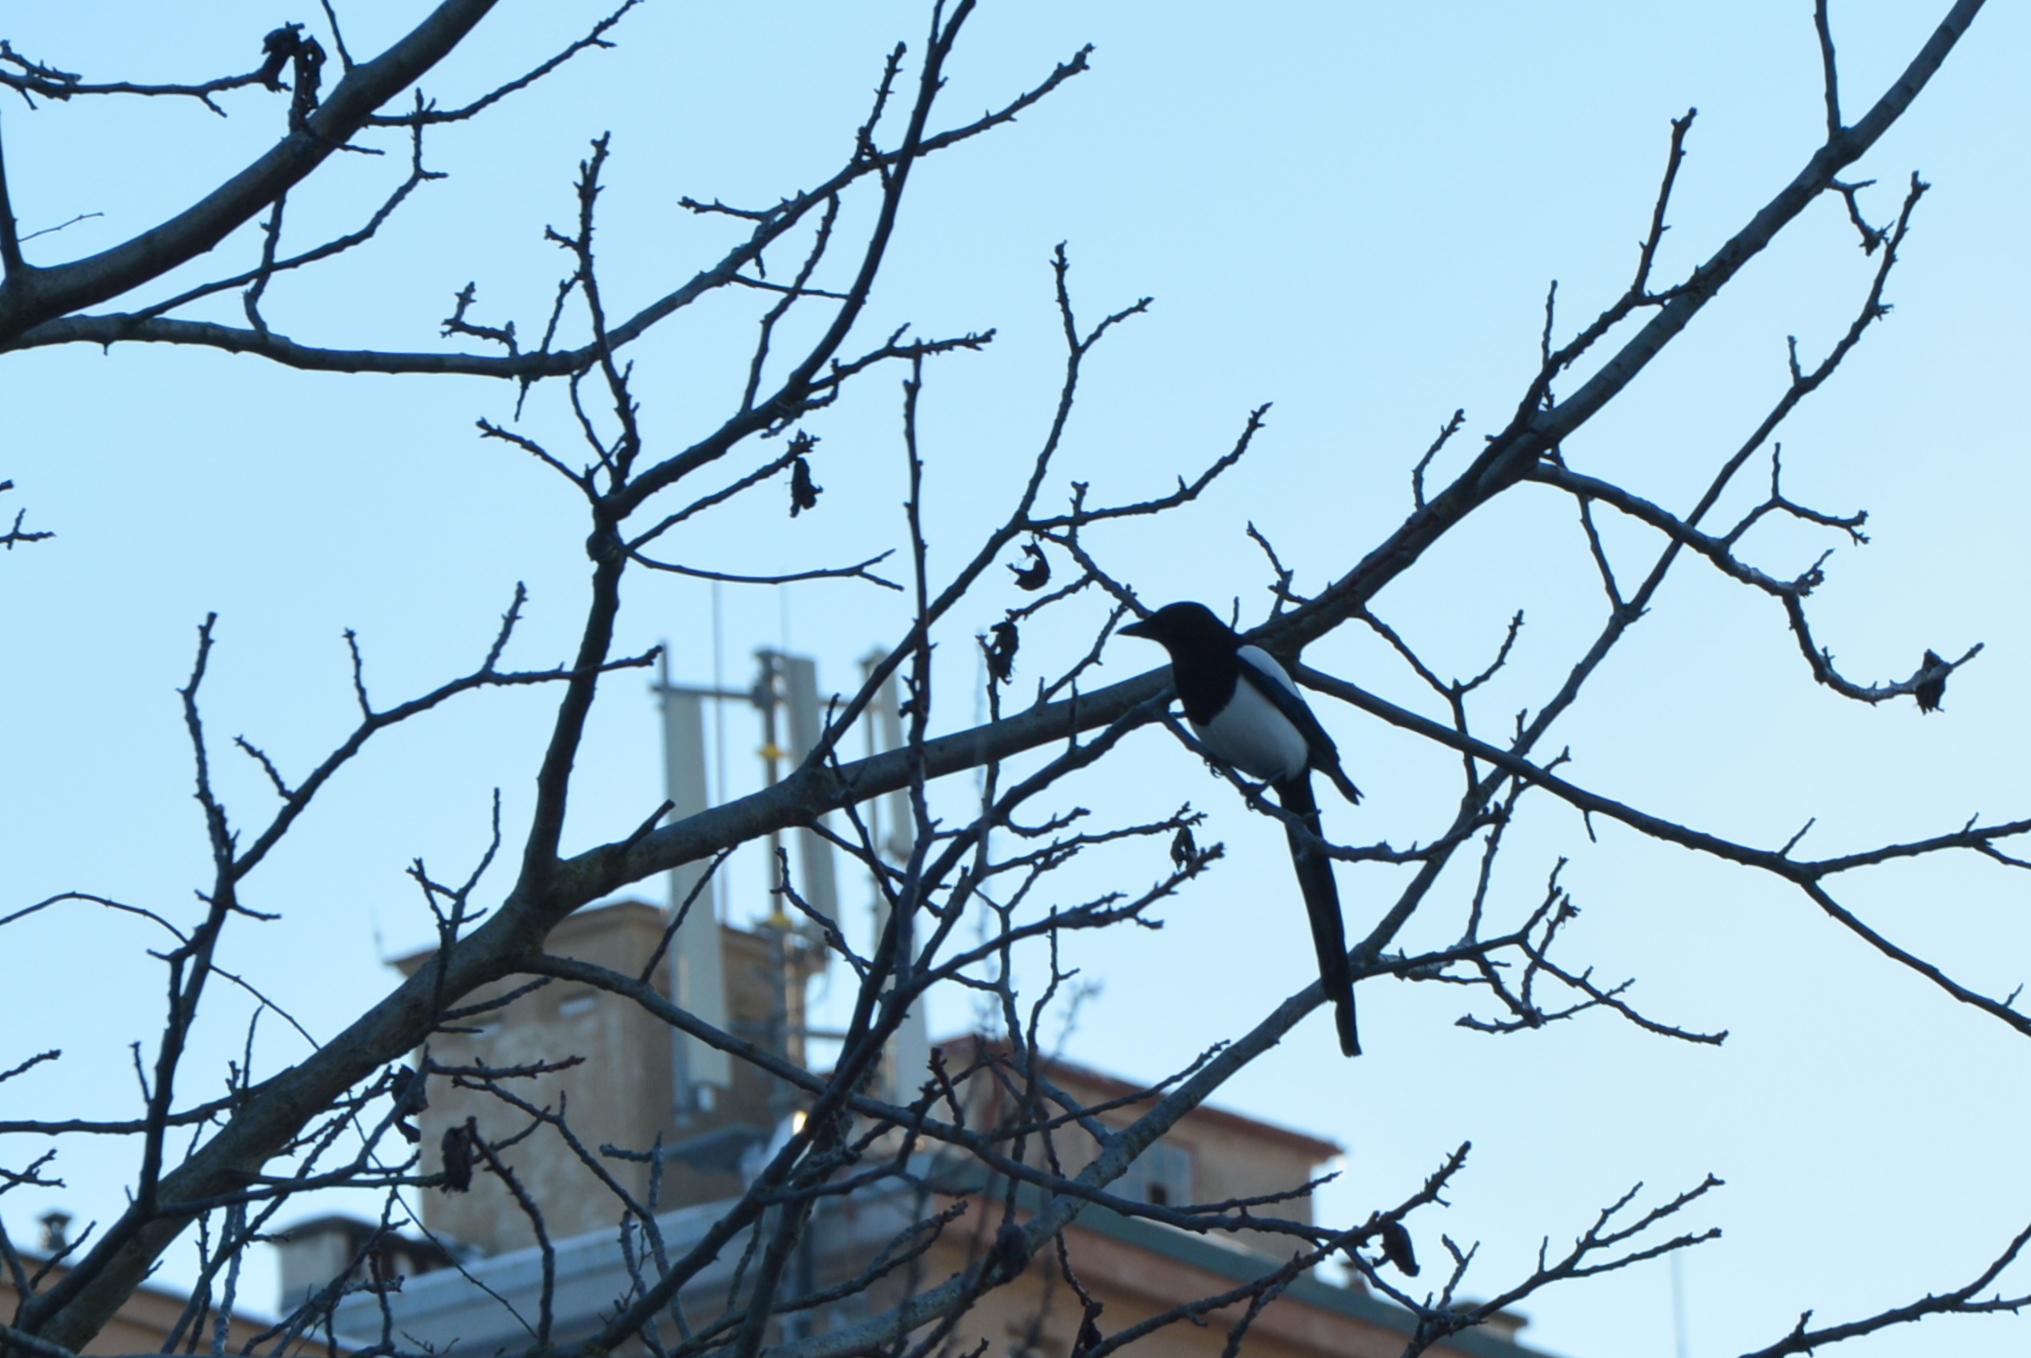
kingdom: Animalia
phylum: Chordata
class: Aves
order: Passeriformes
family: Corvidae
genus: Pica
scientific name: Pica pica
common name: Eurasian magpie
